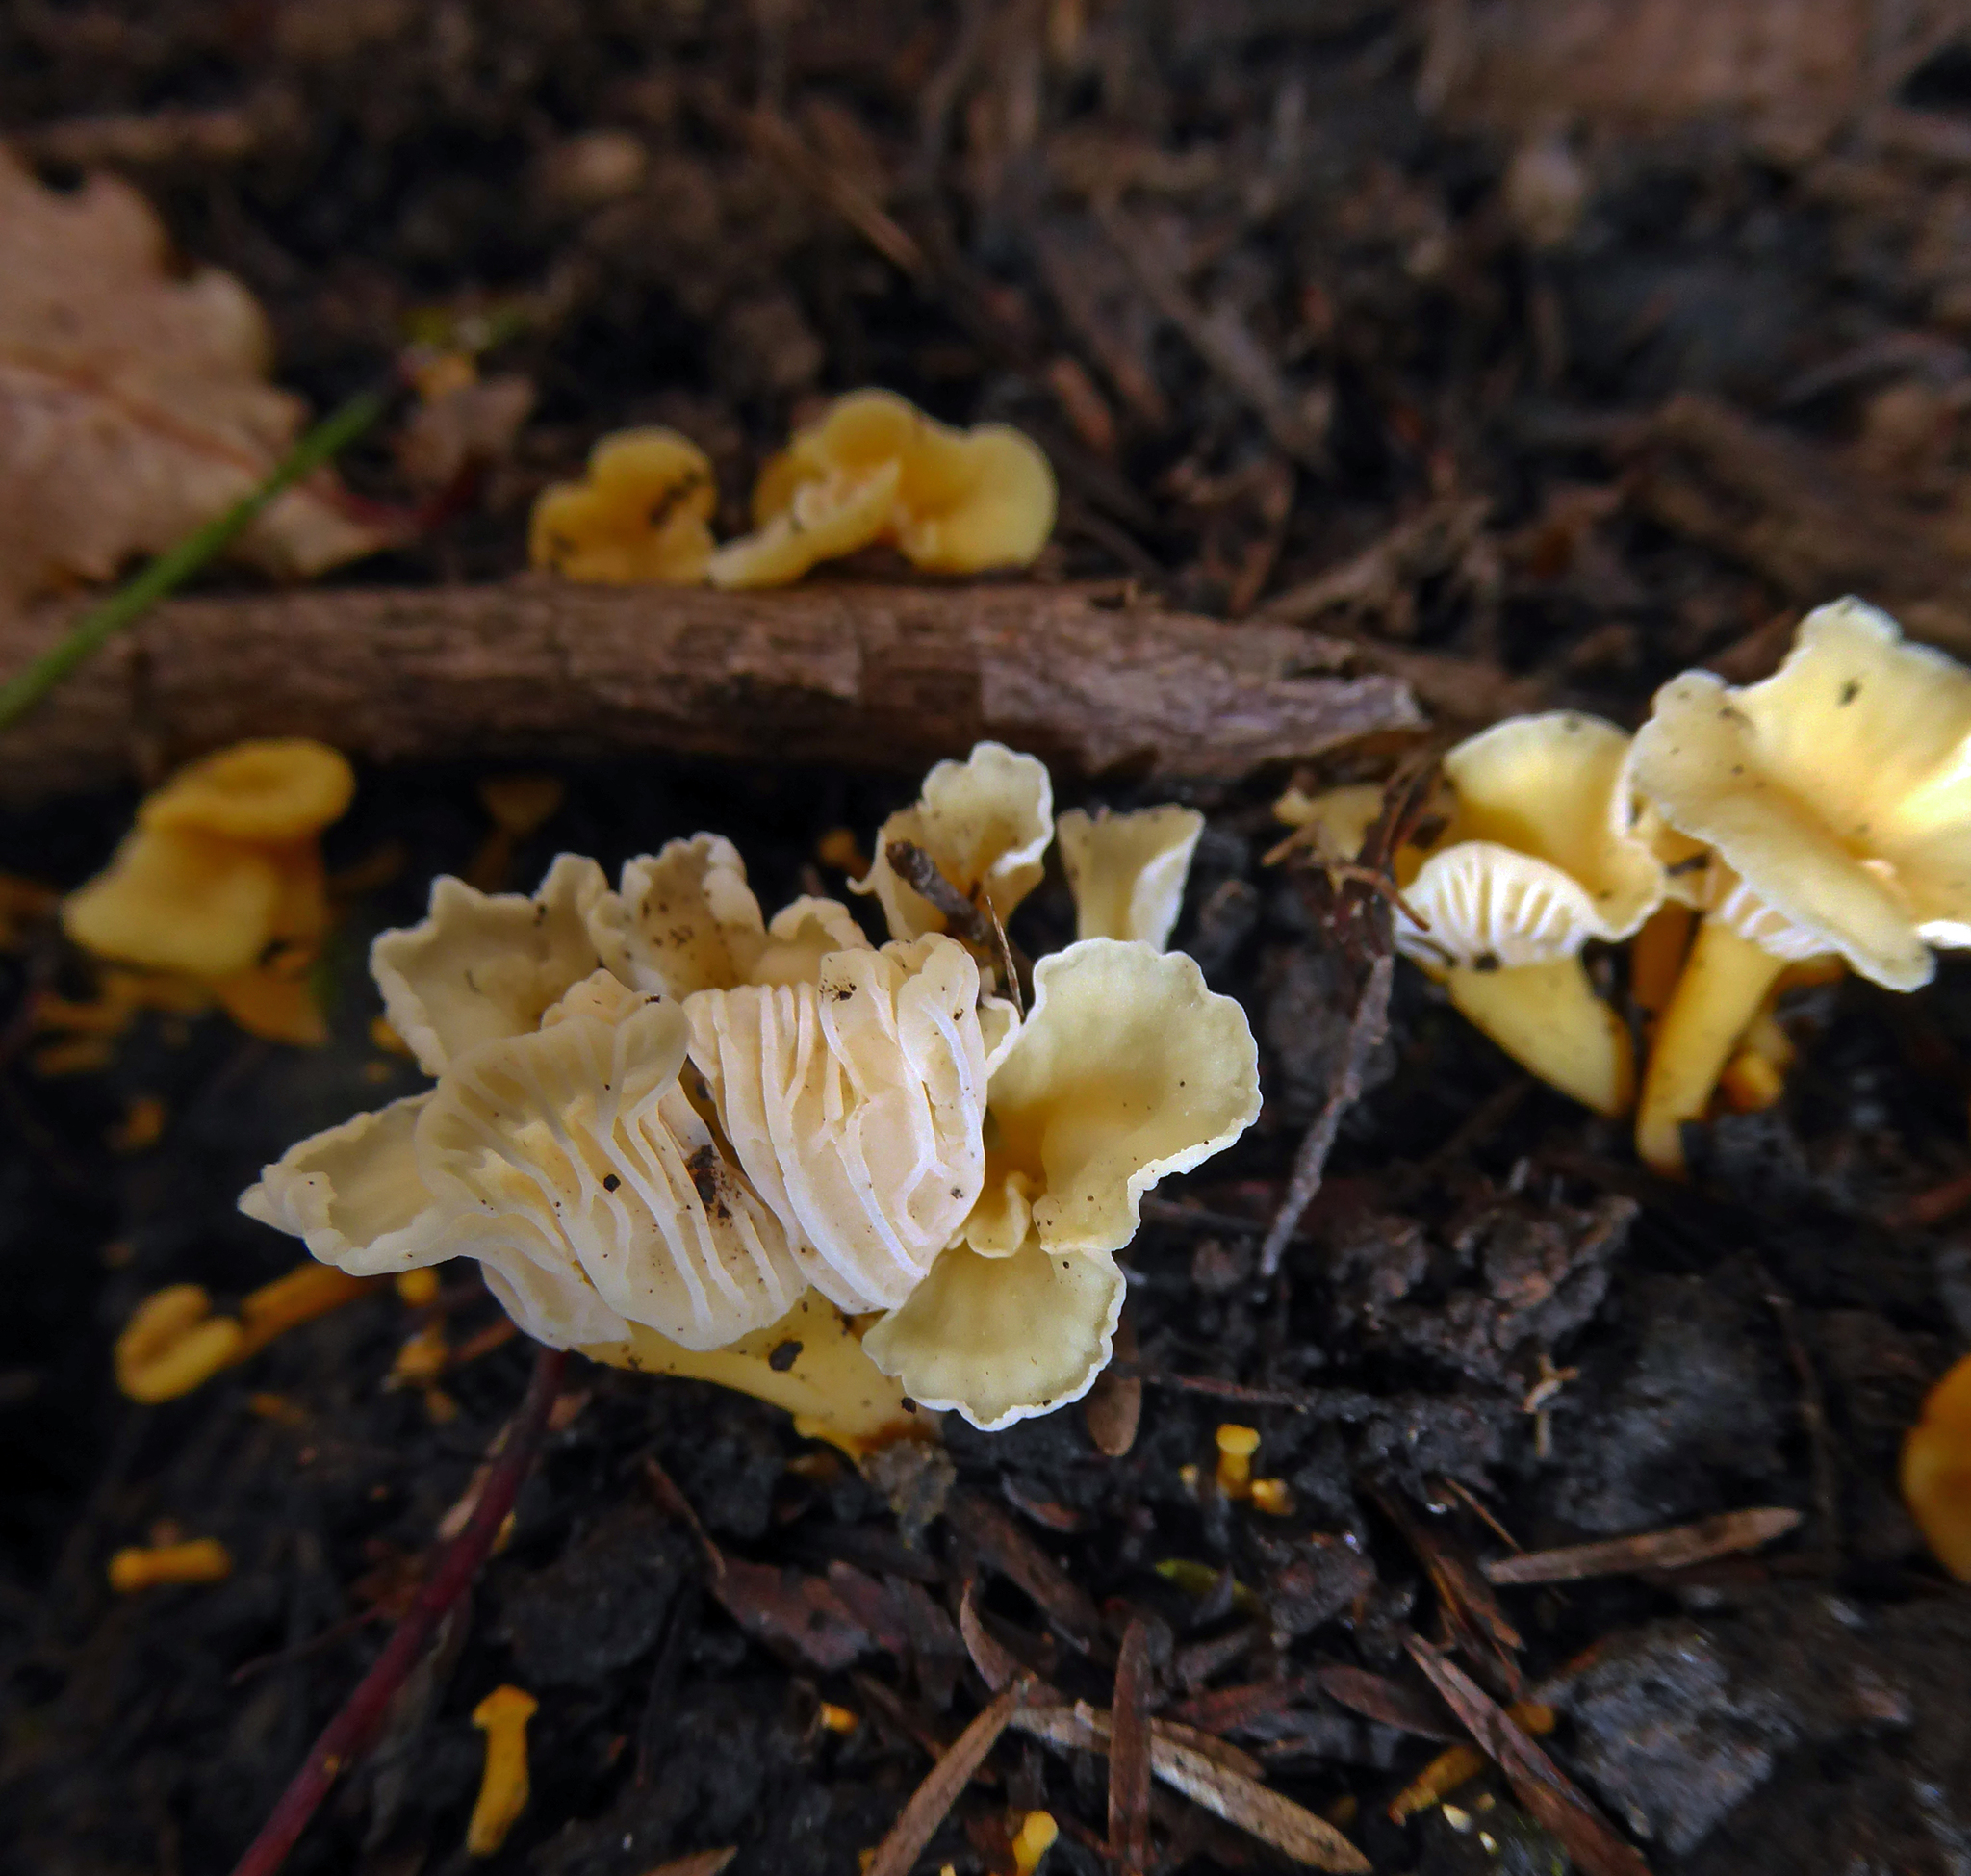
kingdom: Fungi
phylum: Basidiomycota
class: Agaricomycetes
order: Cantharellales
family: Hydnaceae
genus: Cantharellus
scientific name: Cantharellus wellingtonensis
